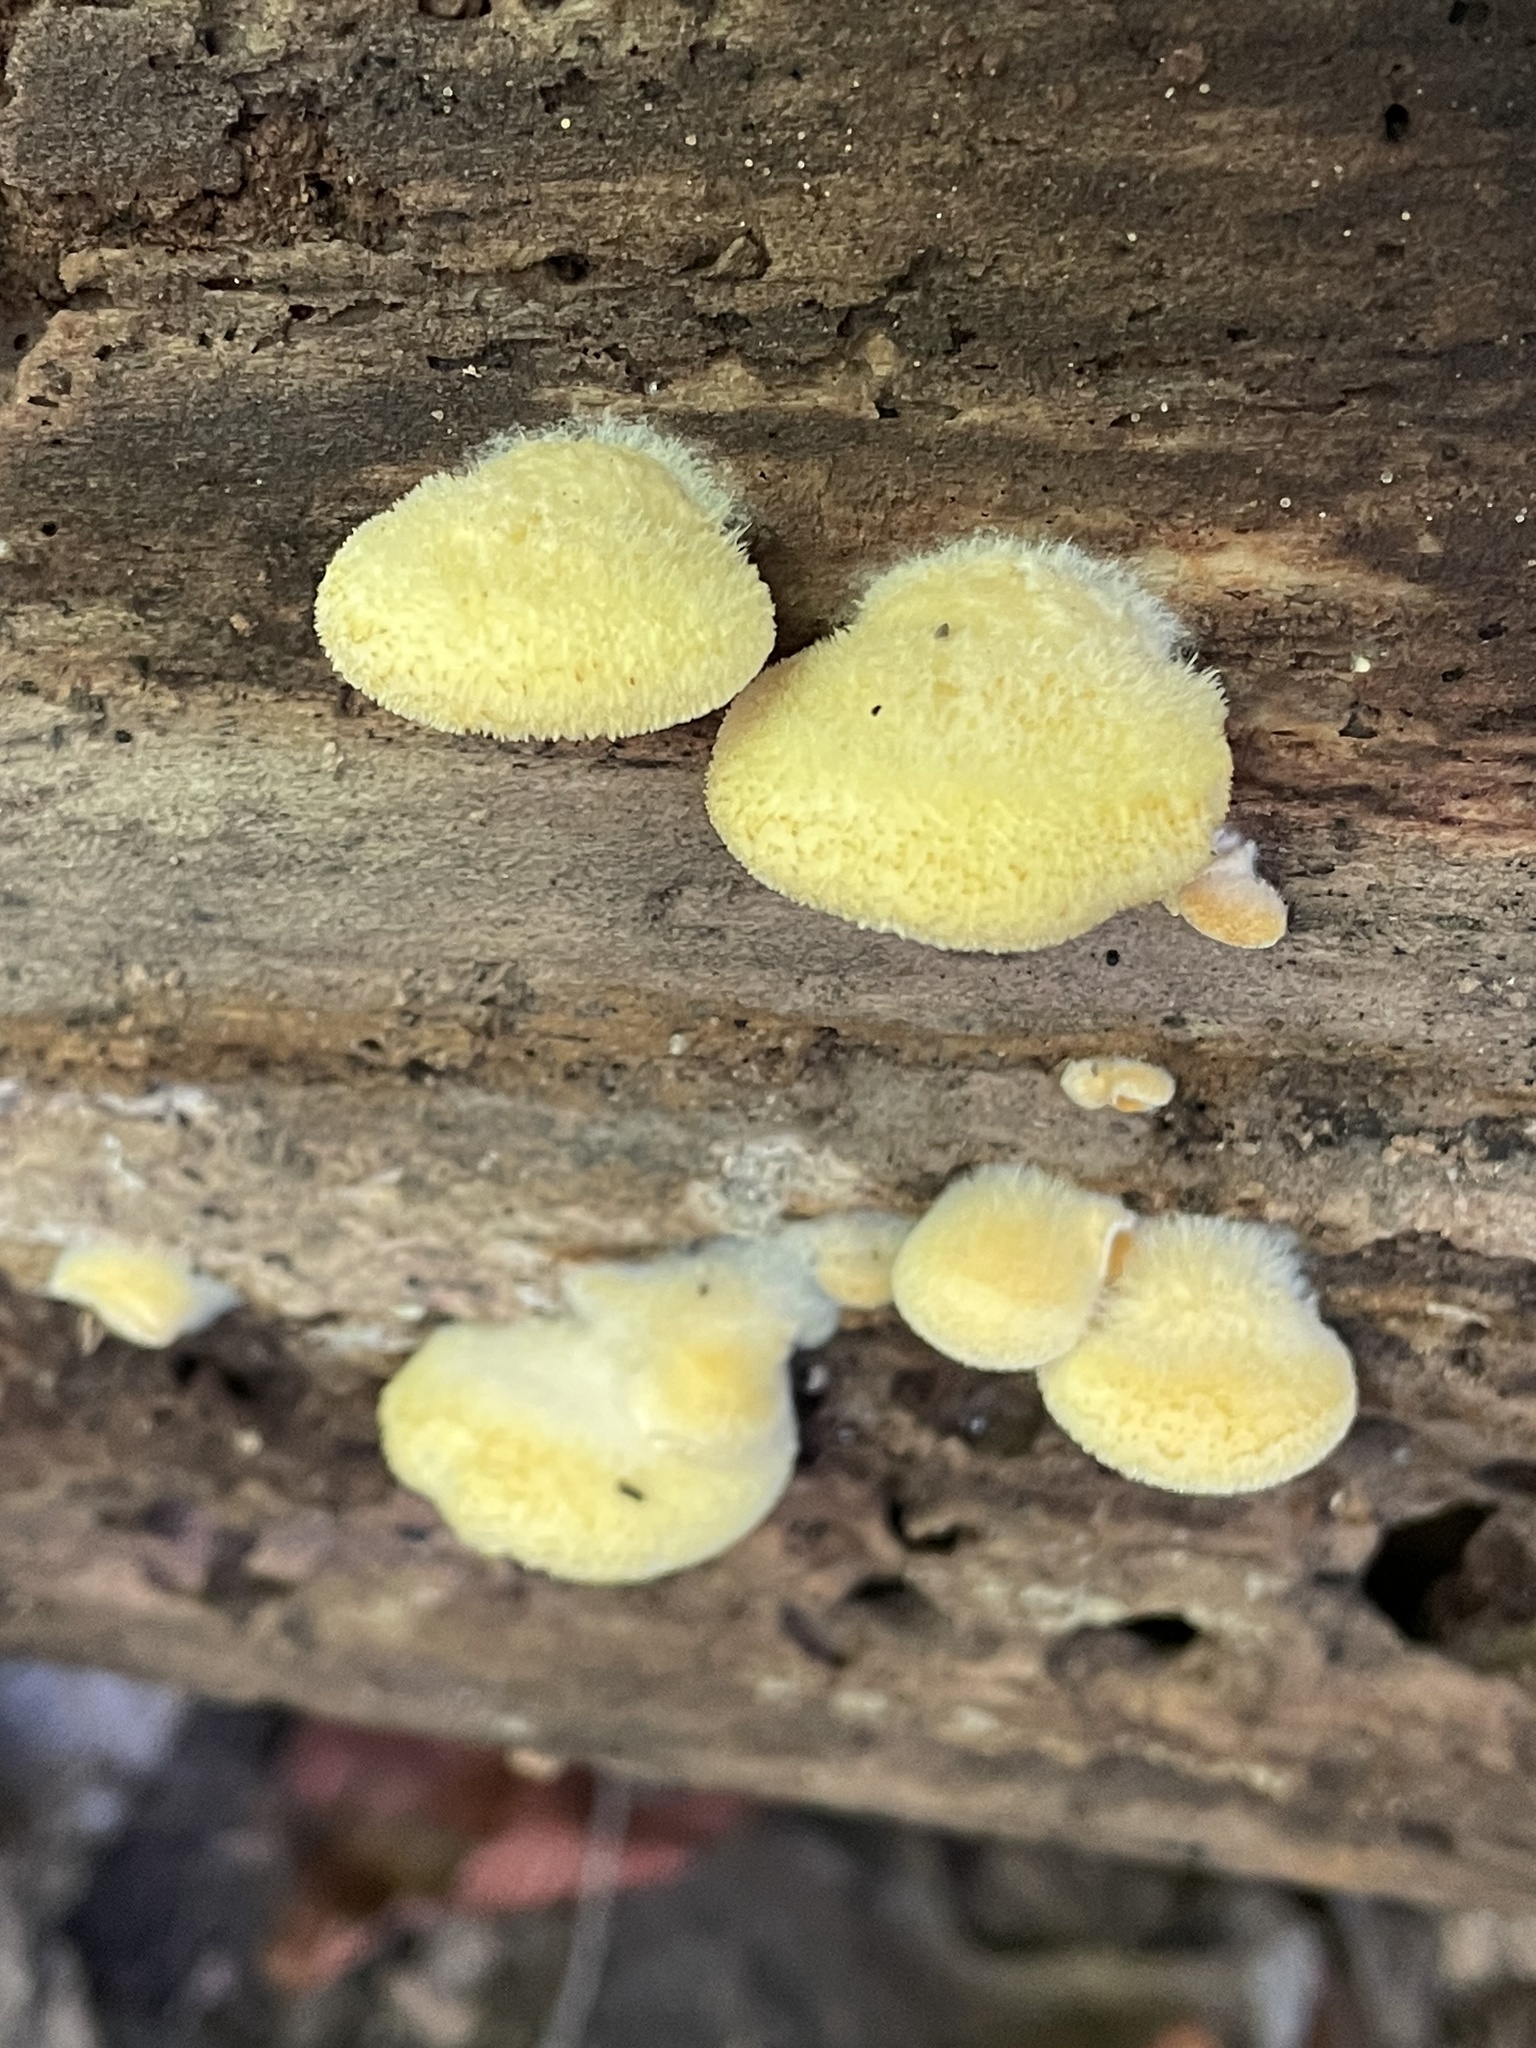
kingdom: Fungi
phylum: Basidiomycota
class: Agaricomycetes
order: Agaricales
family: Phyllotopsidaceae
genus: Phyllotopsis
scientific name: Phyllotopsis nidulans
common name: Orange mock oyster
